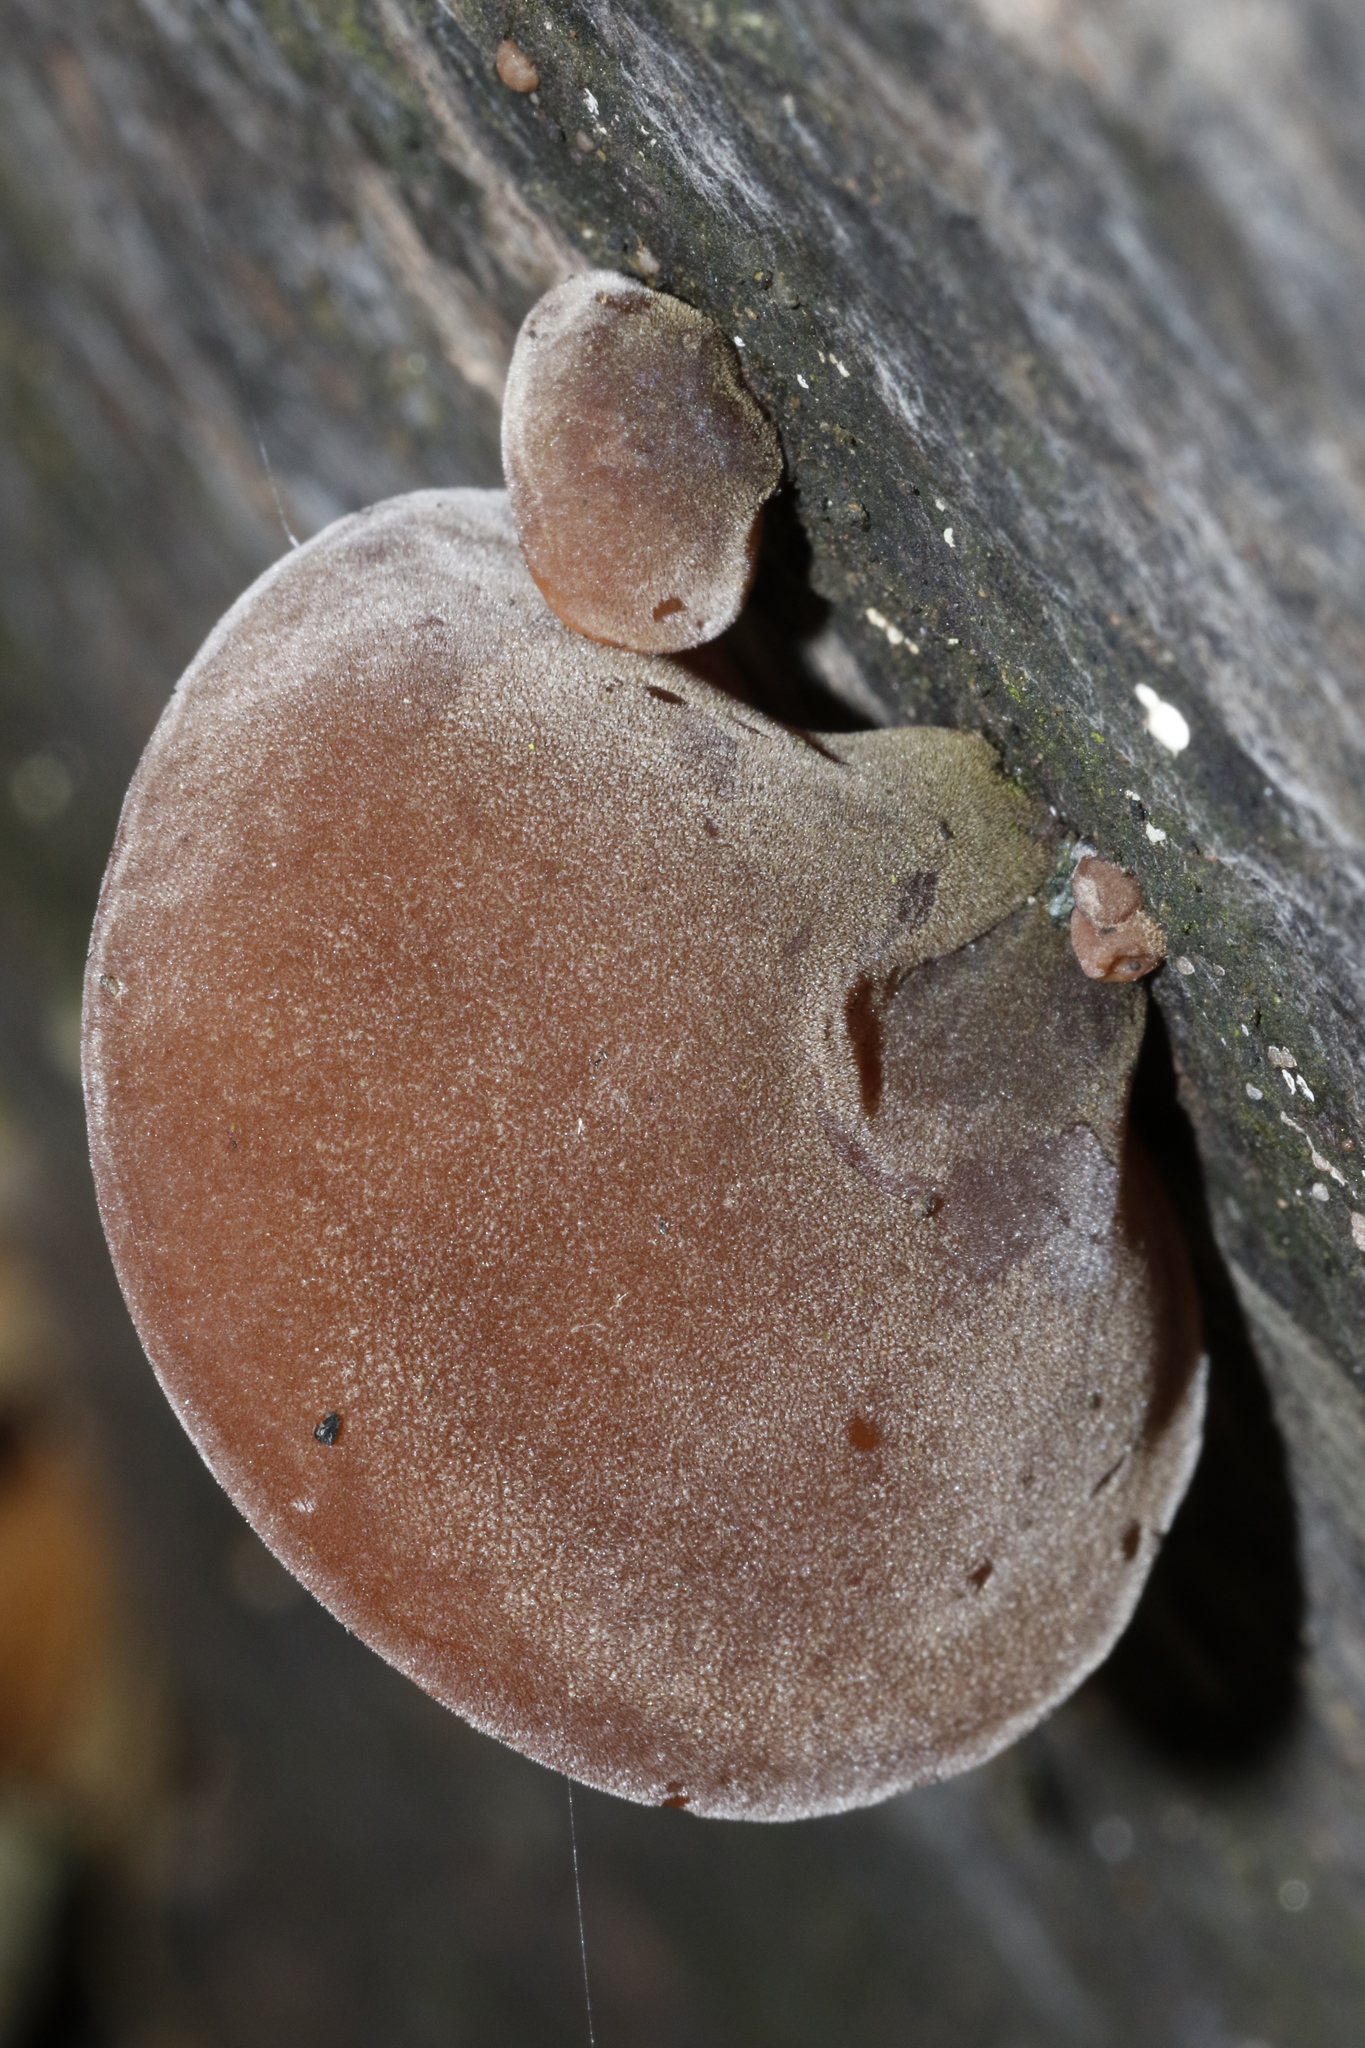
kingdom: Fungi
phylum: Basidiomycota
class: Agaricomycetes
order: Auriculariales
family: Auriculariaceae
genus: Auricularia
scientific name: Auricularia auricula-judae
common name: Jelly ear
